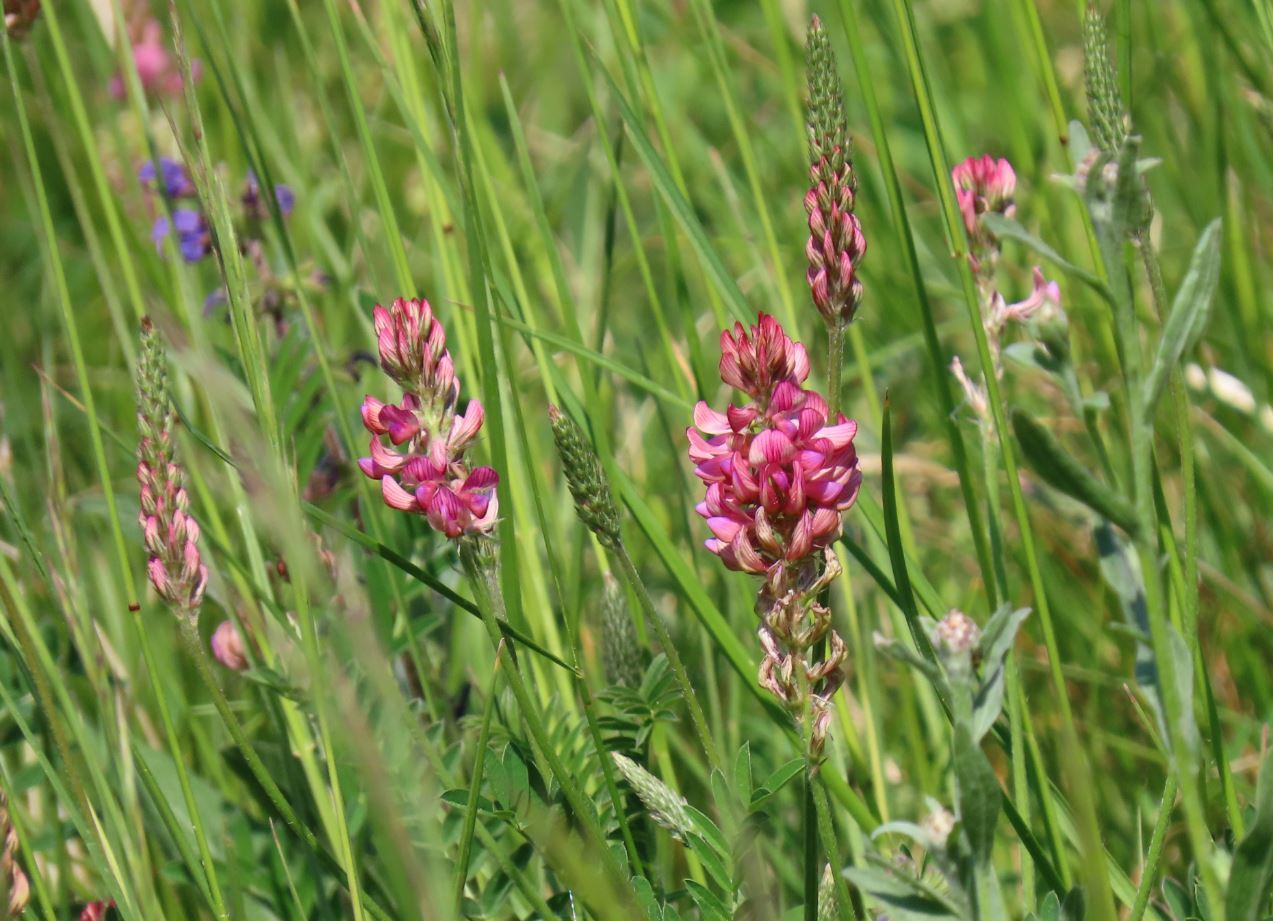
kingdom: Plantae
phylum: Tracheophyta
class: Magnoliopsida
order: Fabales
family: Fabaceae
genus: Onobrychis
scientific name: Onobrychis viciifolia
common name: Sainfoin
